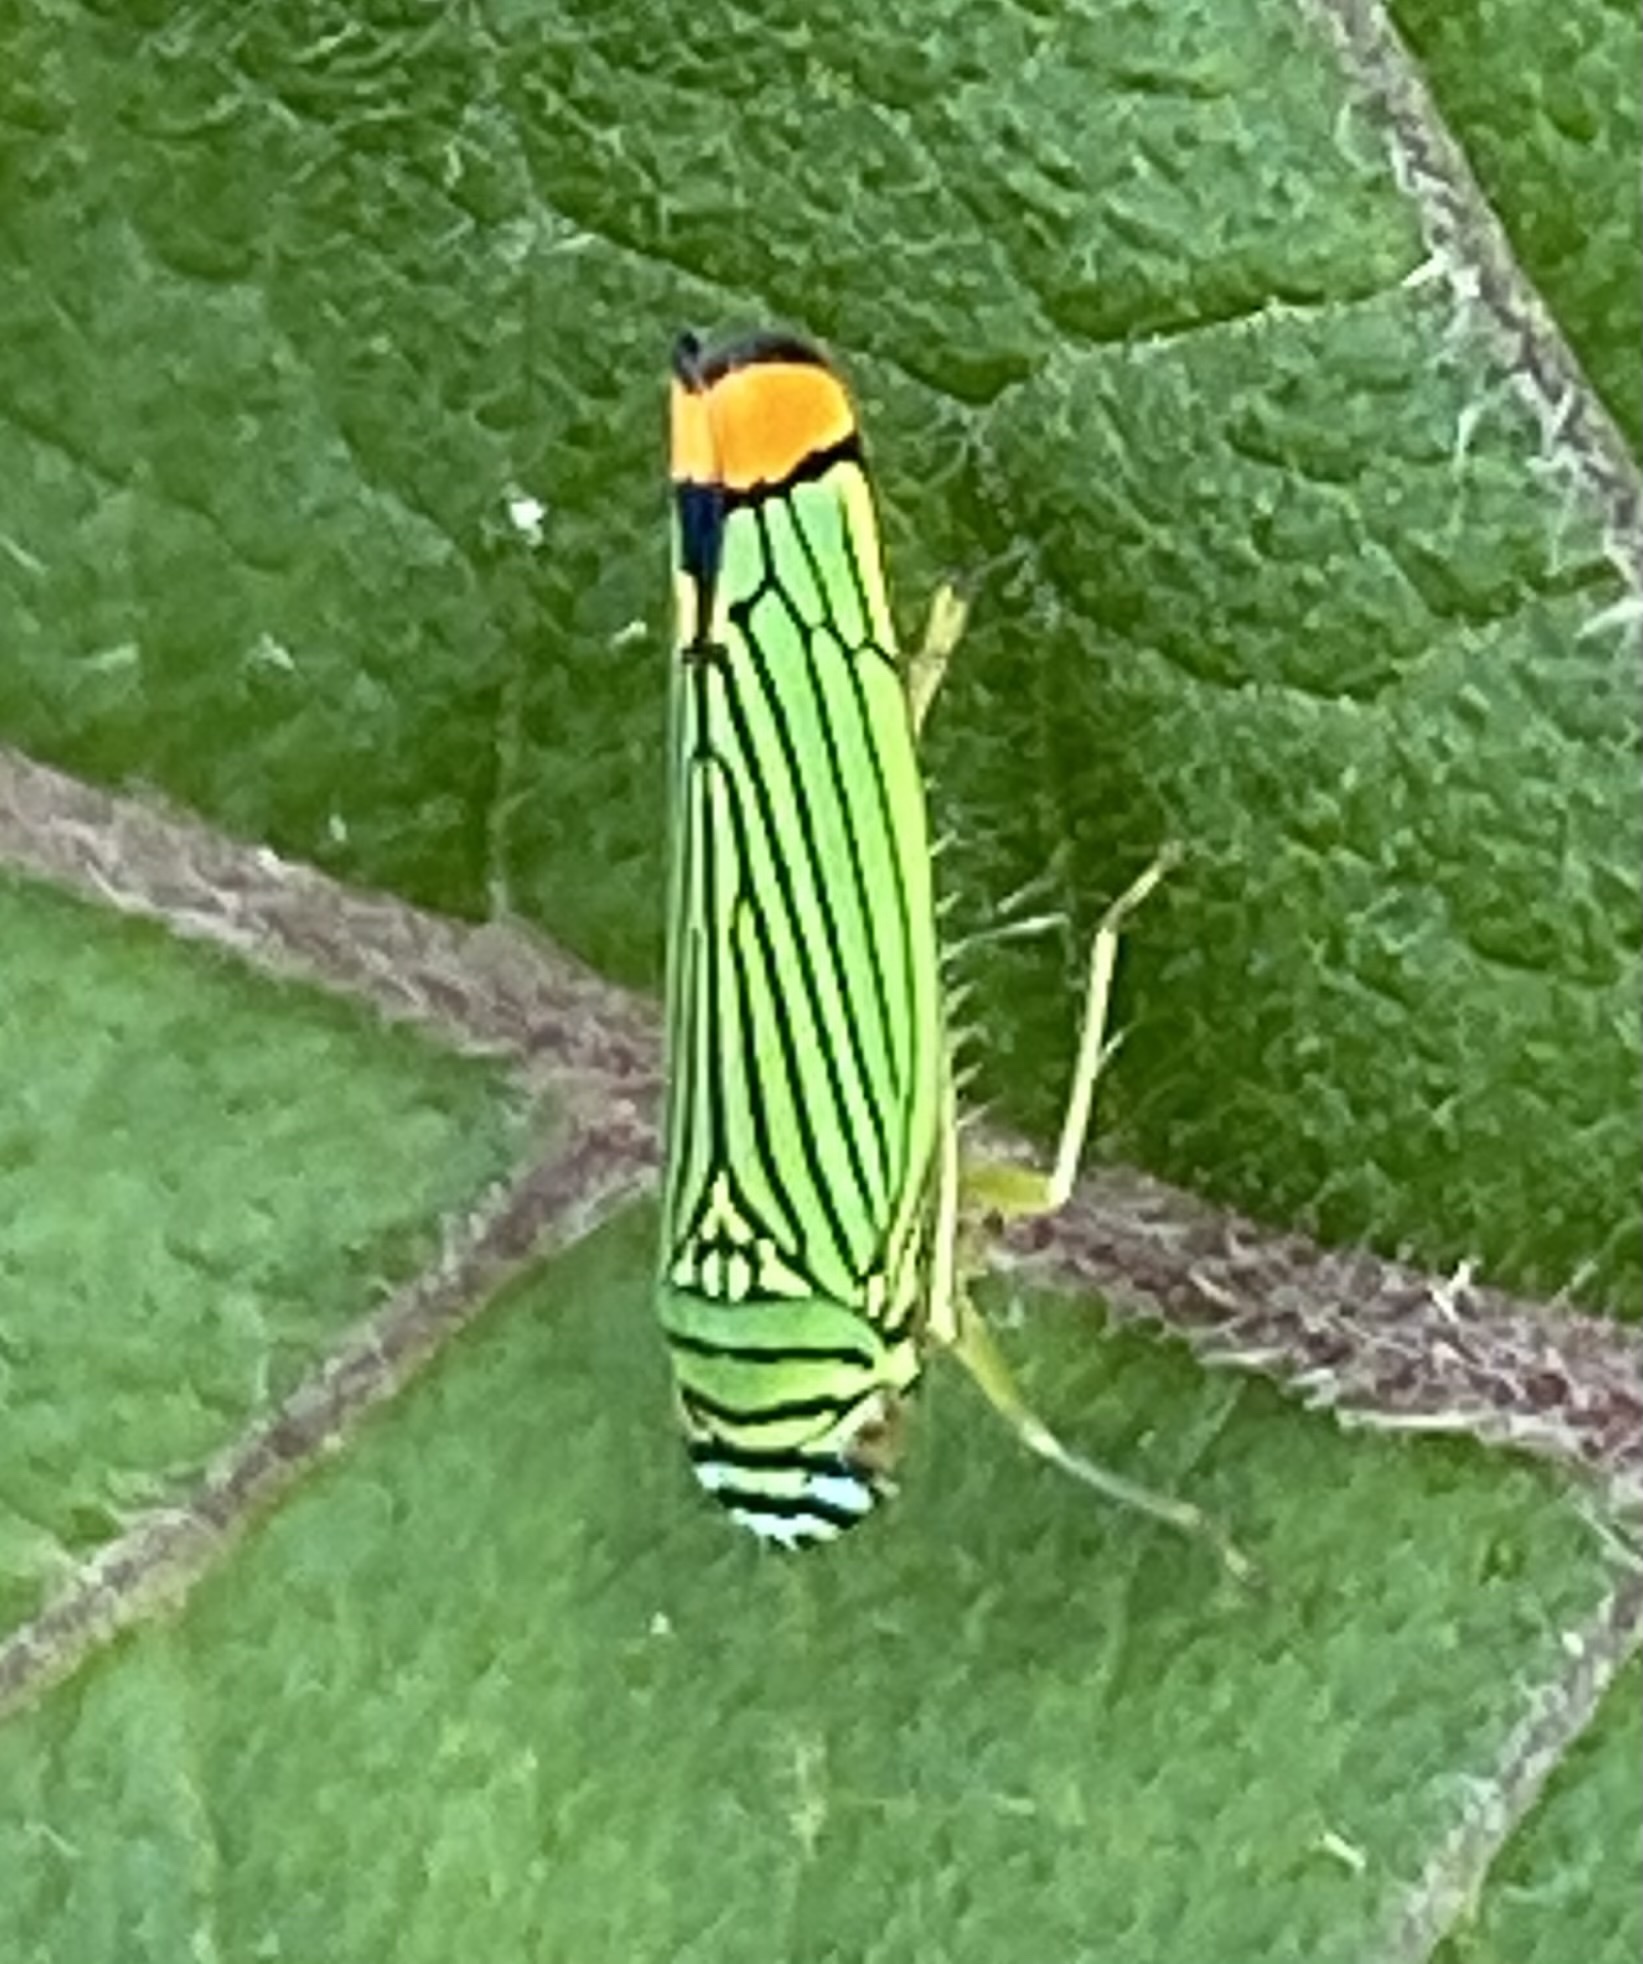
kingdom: Animalia
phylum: Arthropoda
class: Insecta
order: Hemiptera
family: Cicadellidae
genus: Laneola
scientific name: Laneola rubricauda
